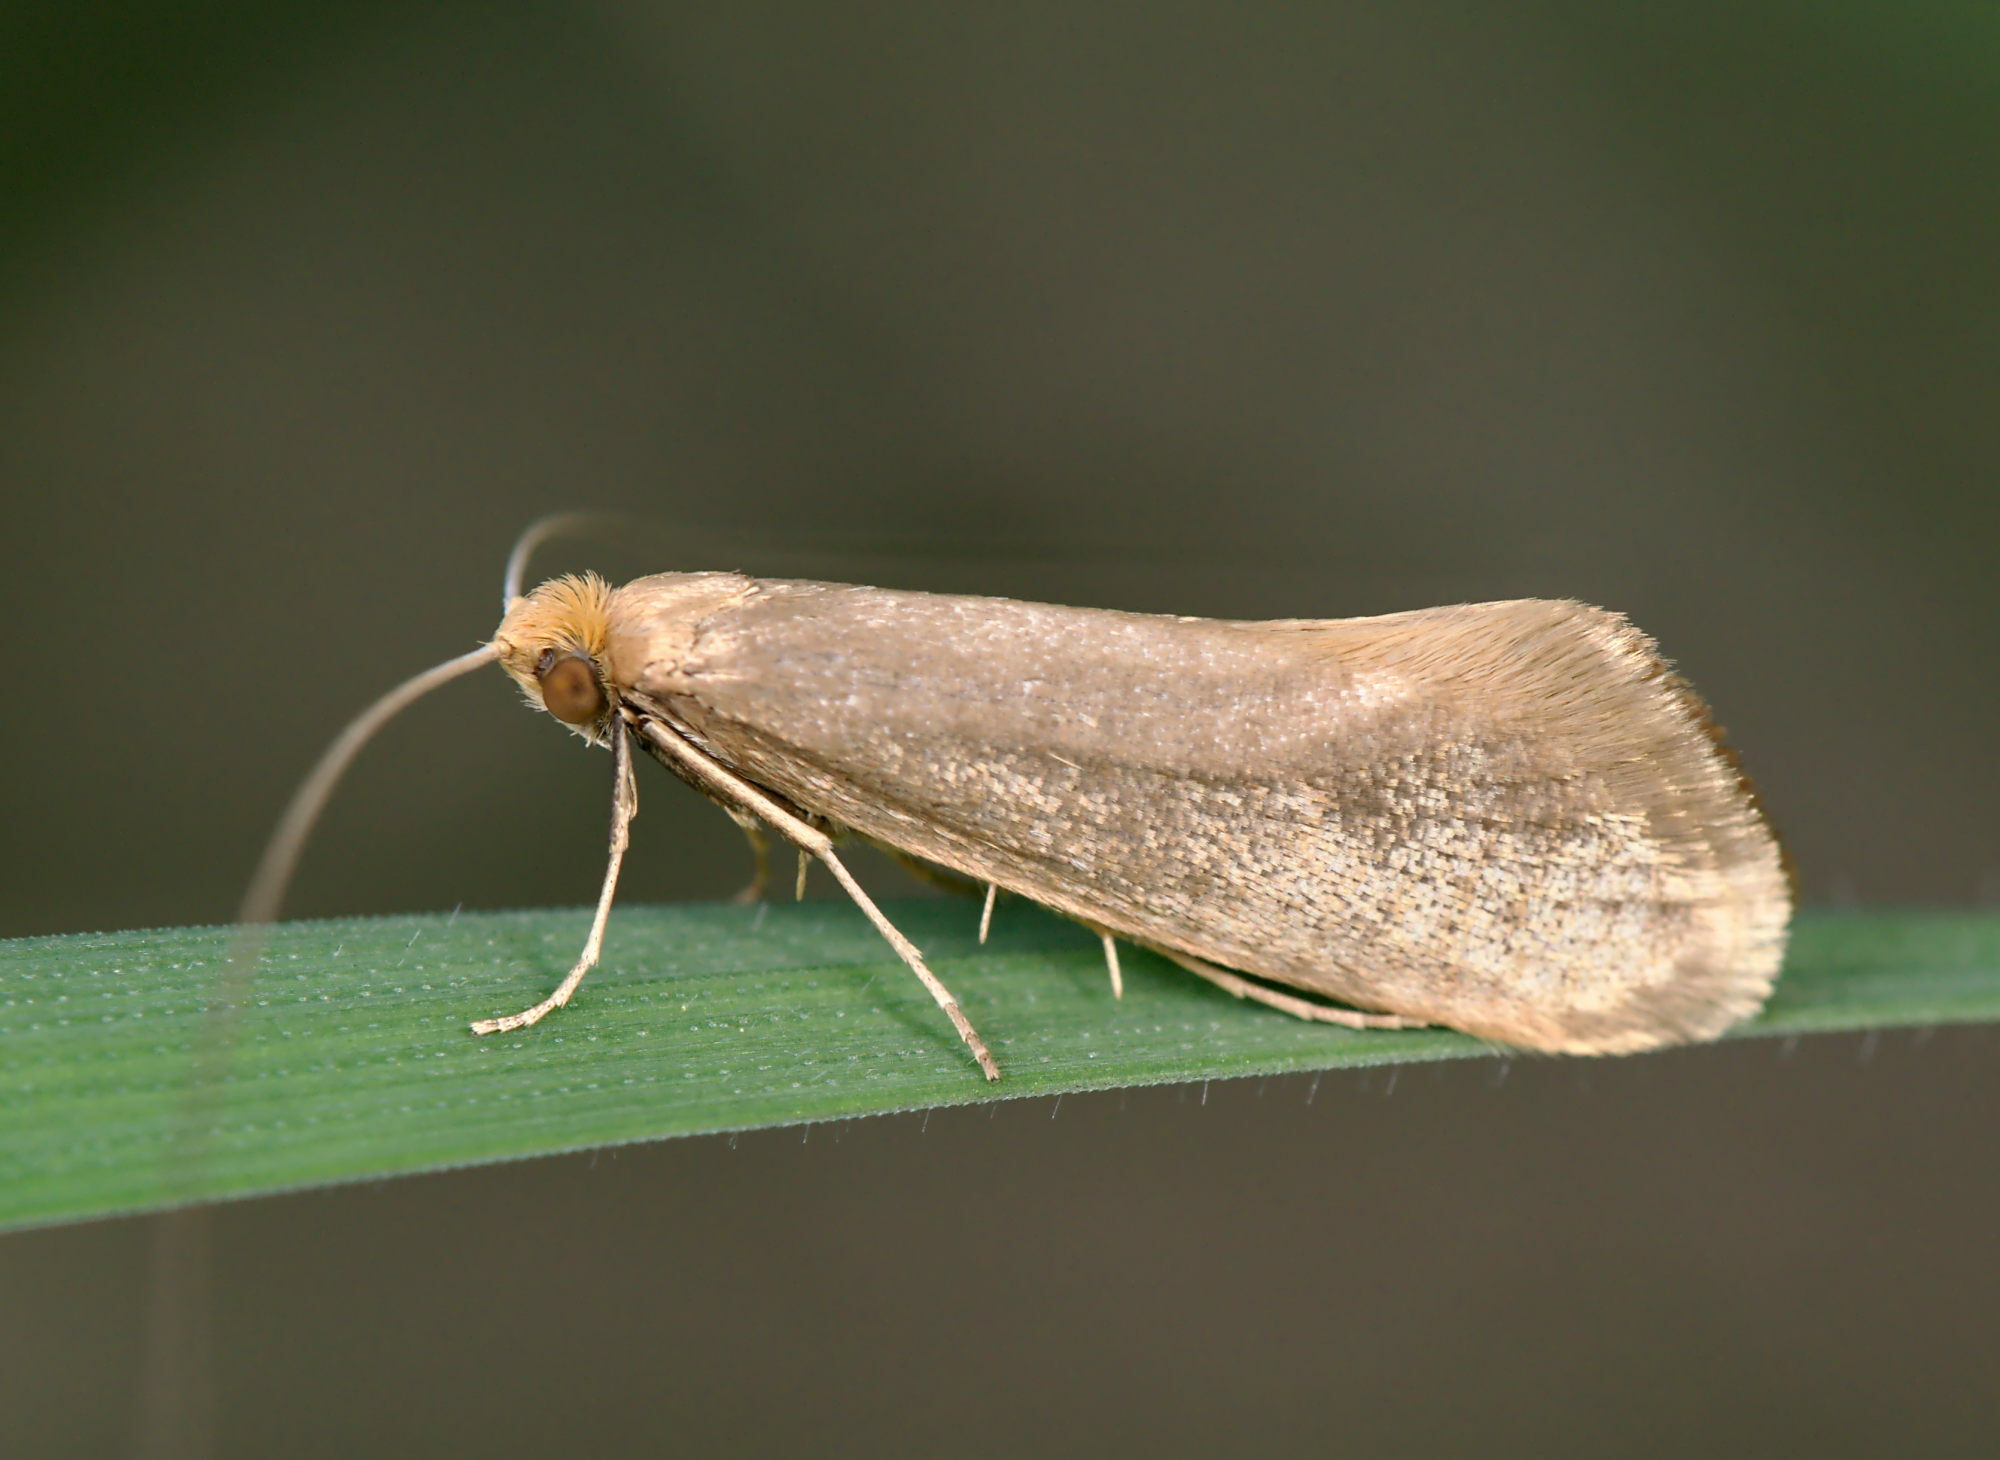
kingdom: Animalia
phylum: Arthropoda
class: Insecta
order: Lepidoptera
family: Adelidae
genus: Nematopogon
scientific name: Nematopogon swammerdamella
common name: Large long-horn
